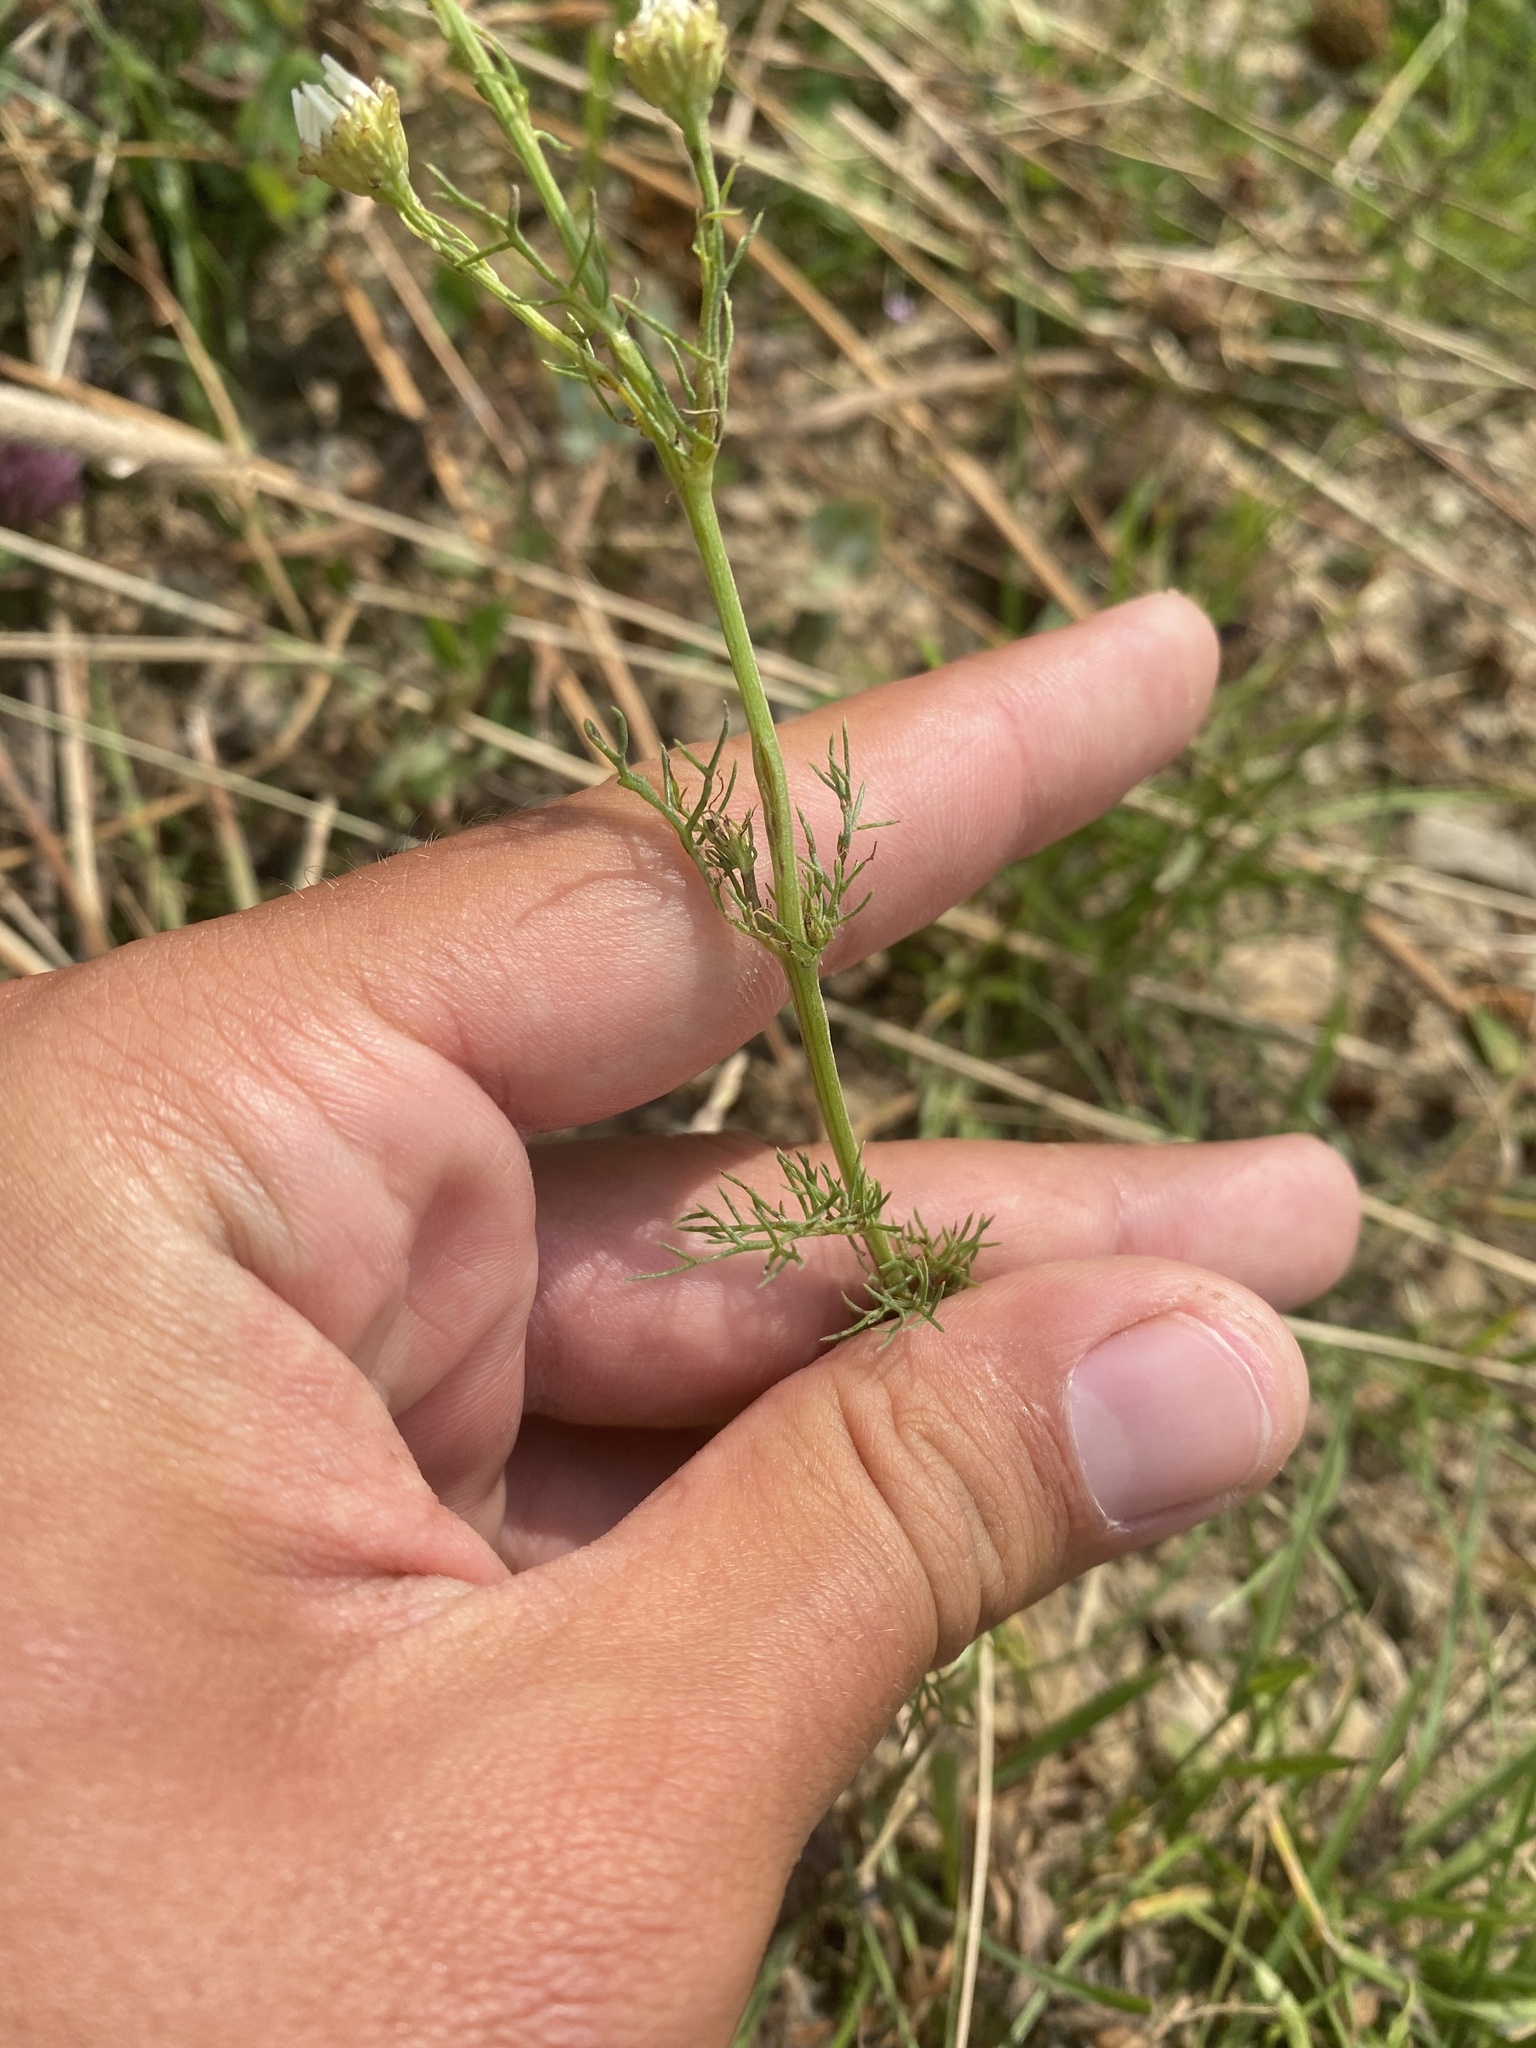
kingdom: Plantae
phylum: Tracheophyta
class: Magnoliopsida
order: Asterales
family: Asteraceae
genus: Tripleurospermum
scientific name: Tripleurospermum inodorum
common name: Scentless mayweed
